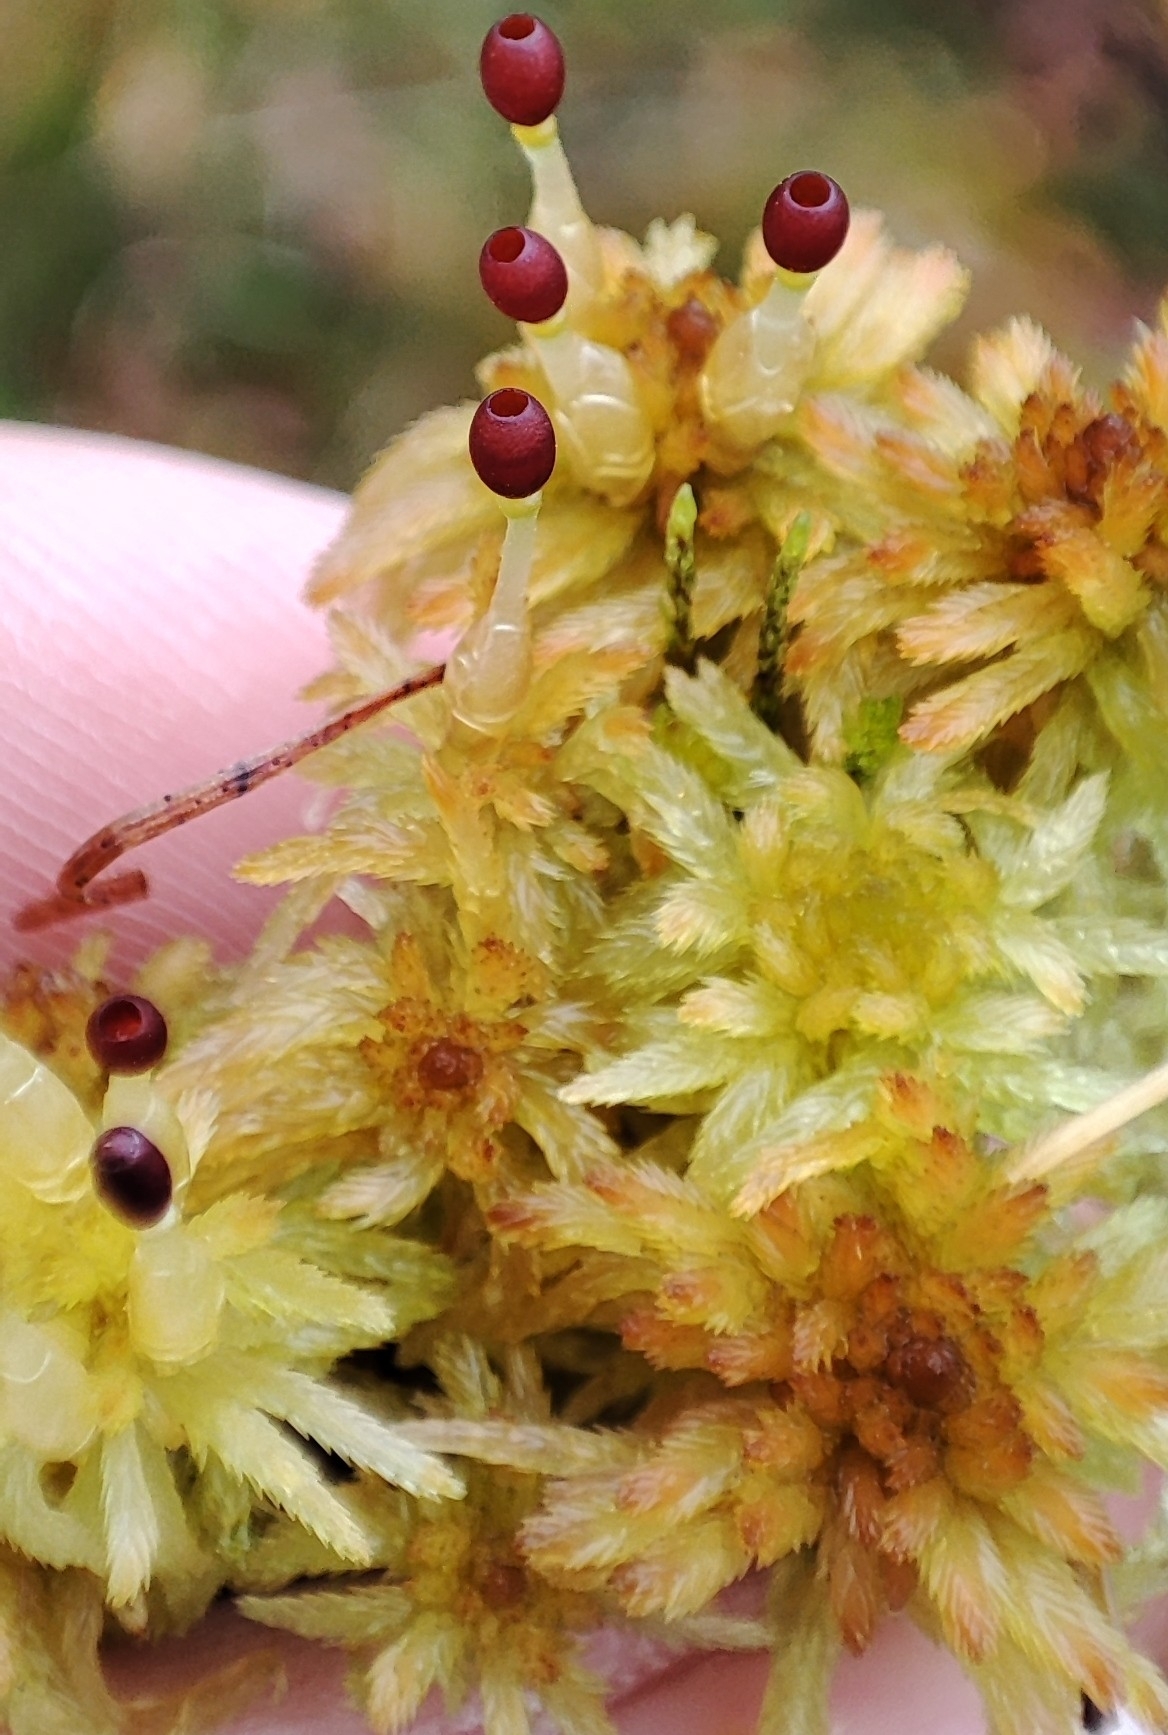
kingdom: Plantae
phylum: Bryophyta
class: Sphagnopsida
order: Sphagnales
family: Sphagnaceae
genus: Sphagnum
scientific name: Sphagnum lindbergii
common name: Lindberg's peat moss
